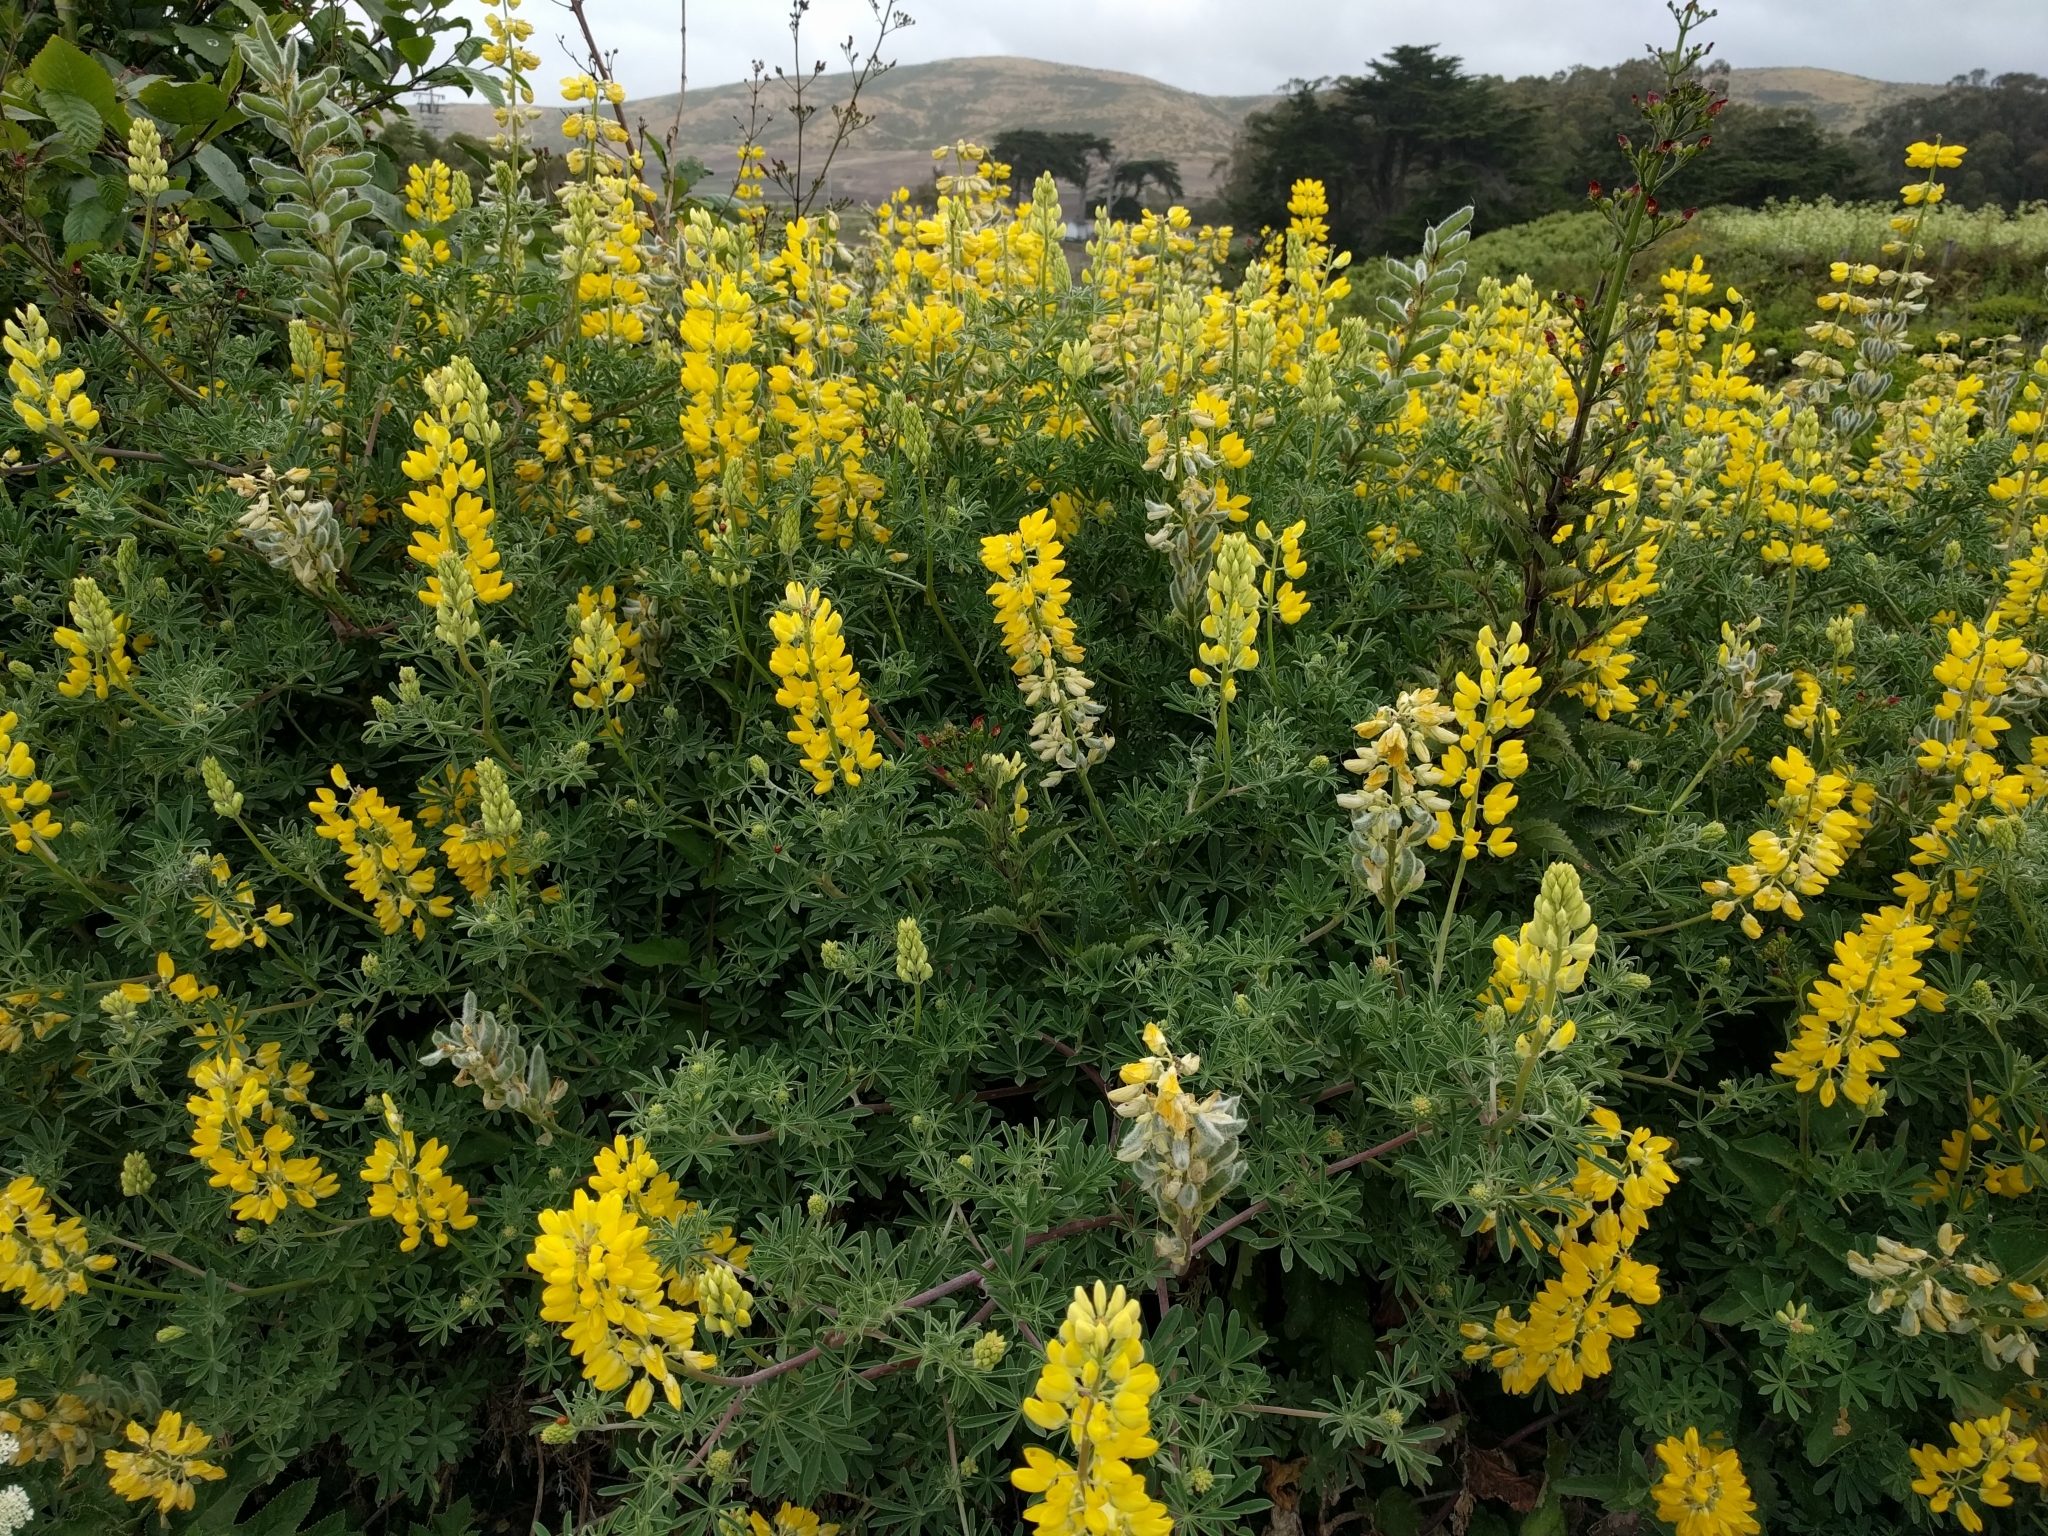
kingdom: Plantae
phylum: Tracheophyta
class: Magnoliopsida
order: Fabales
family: Fabaceae
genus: Lupinus
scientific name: Lupinus arboreus
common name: Yellow bush lupine
